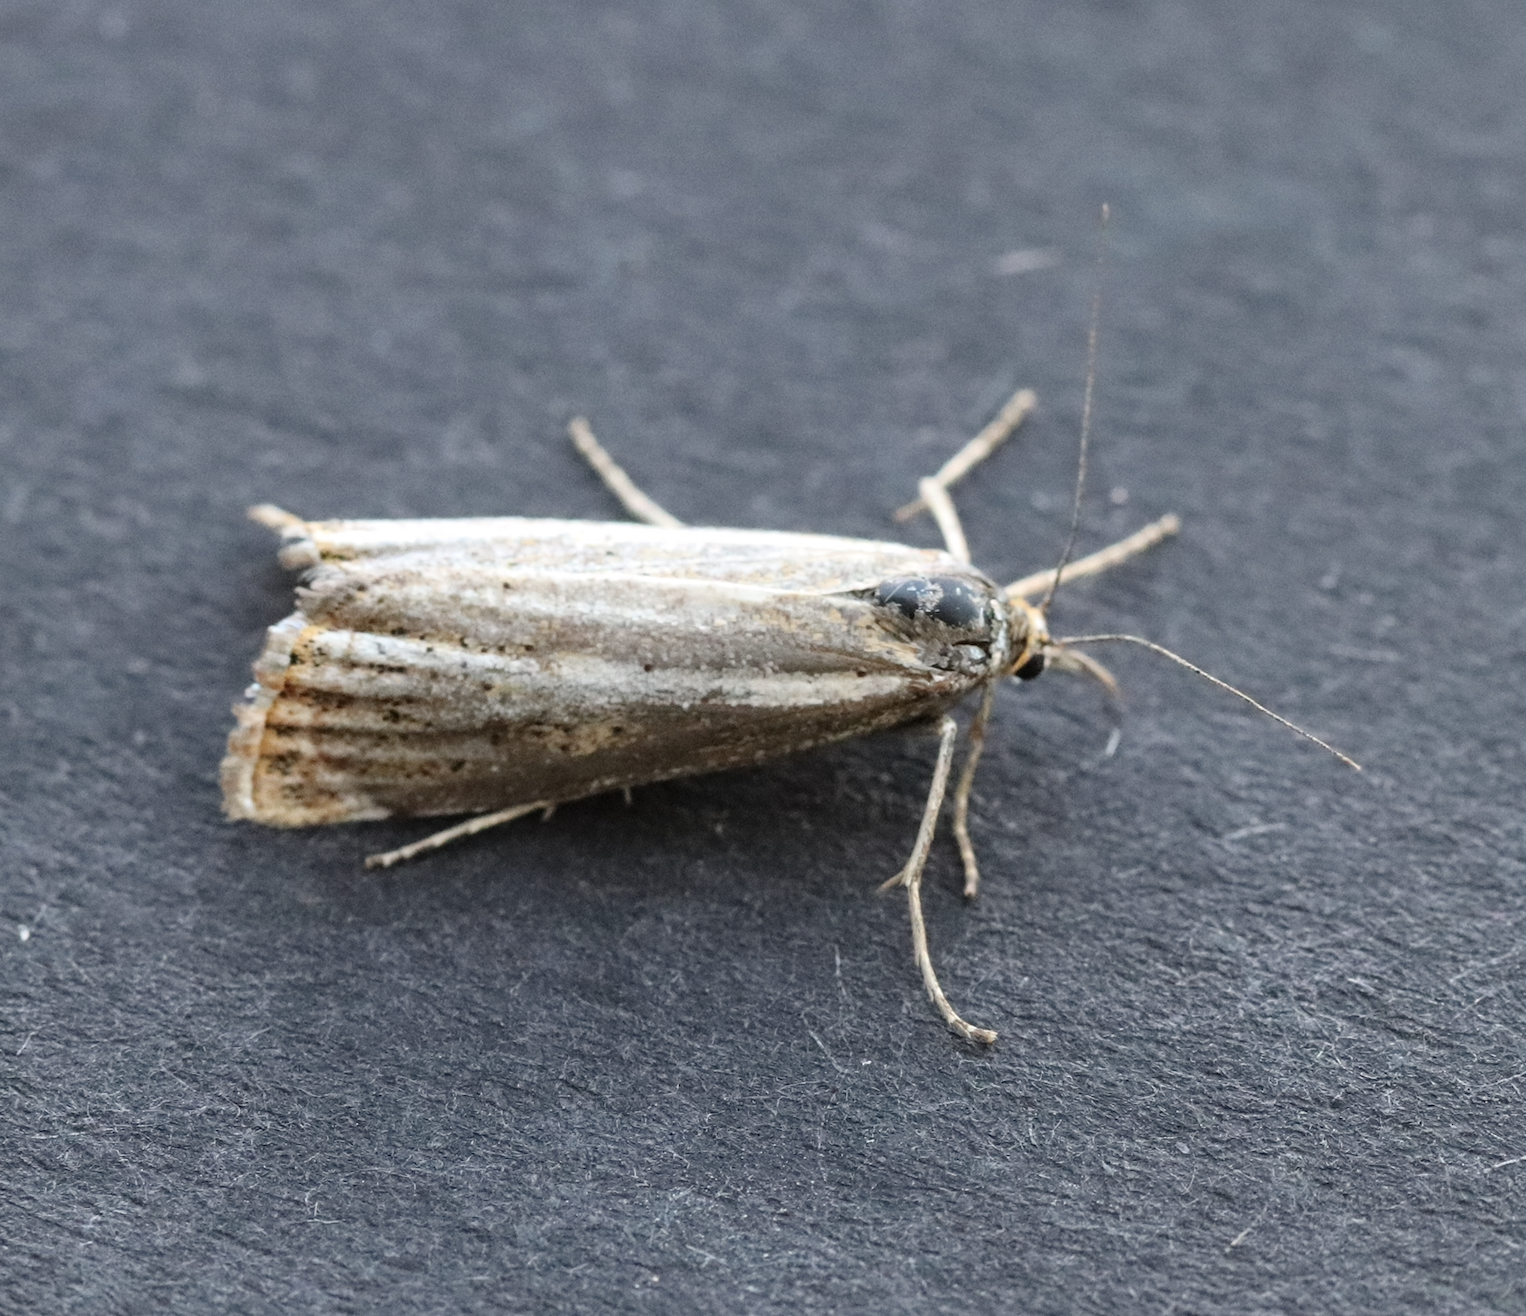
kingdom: Animalia
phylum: Arthropoda
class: Insecta
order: Lepidoptera
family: Crambidae
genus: Thisanotia
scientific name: Thisanotia chrysonuchella
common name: Powdered grass-veneer
